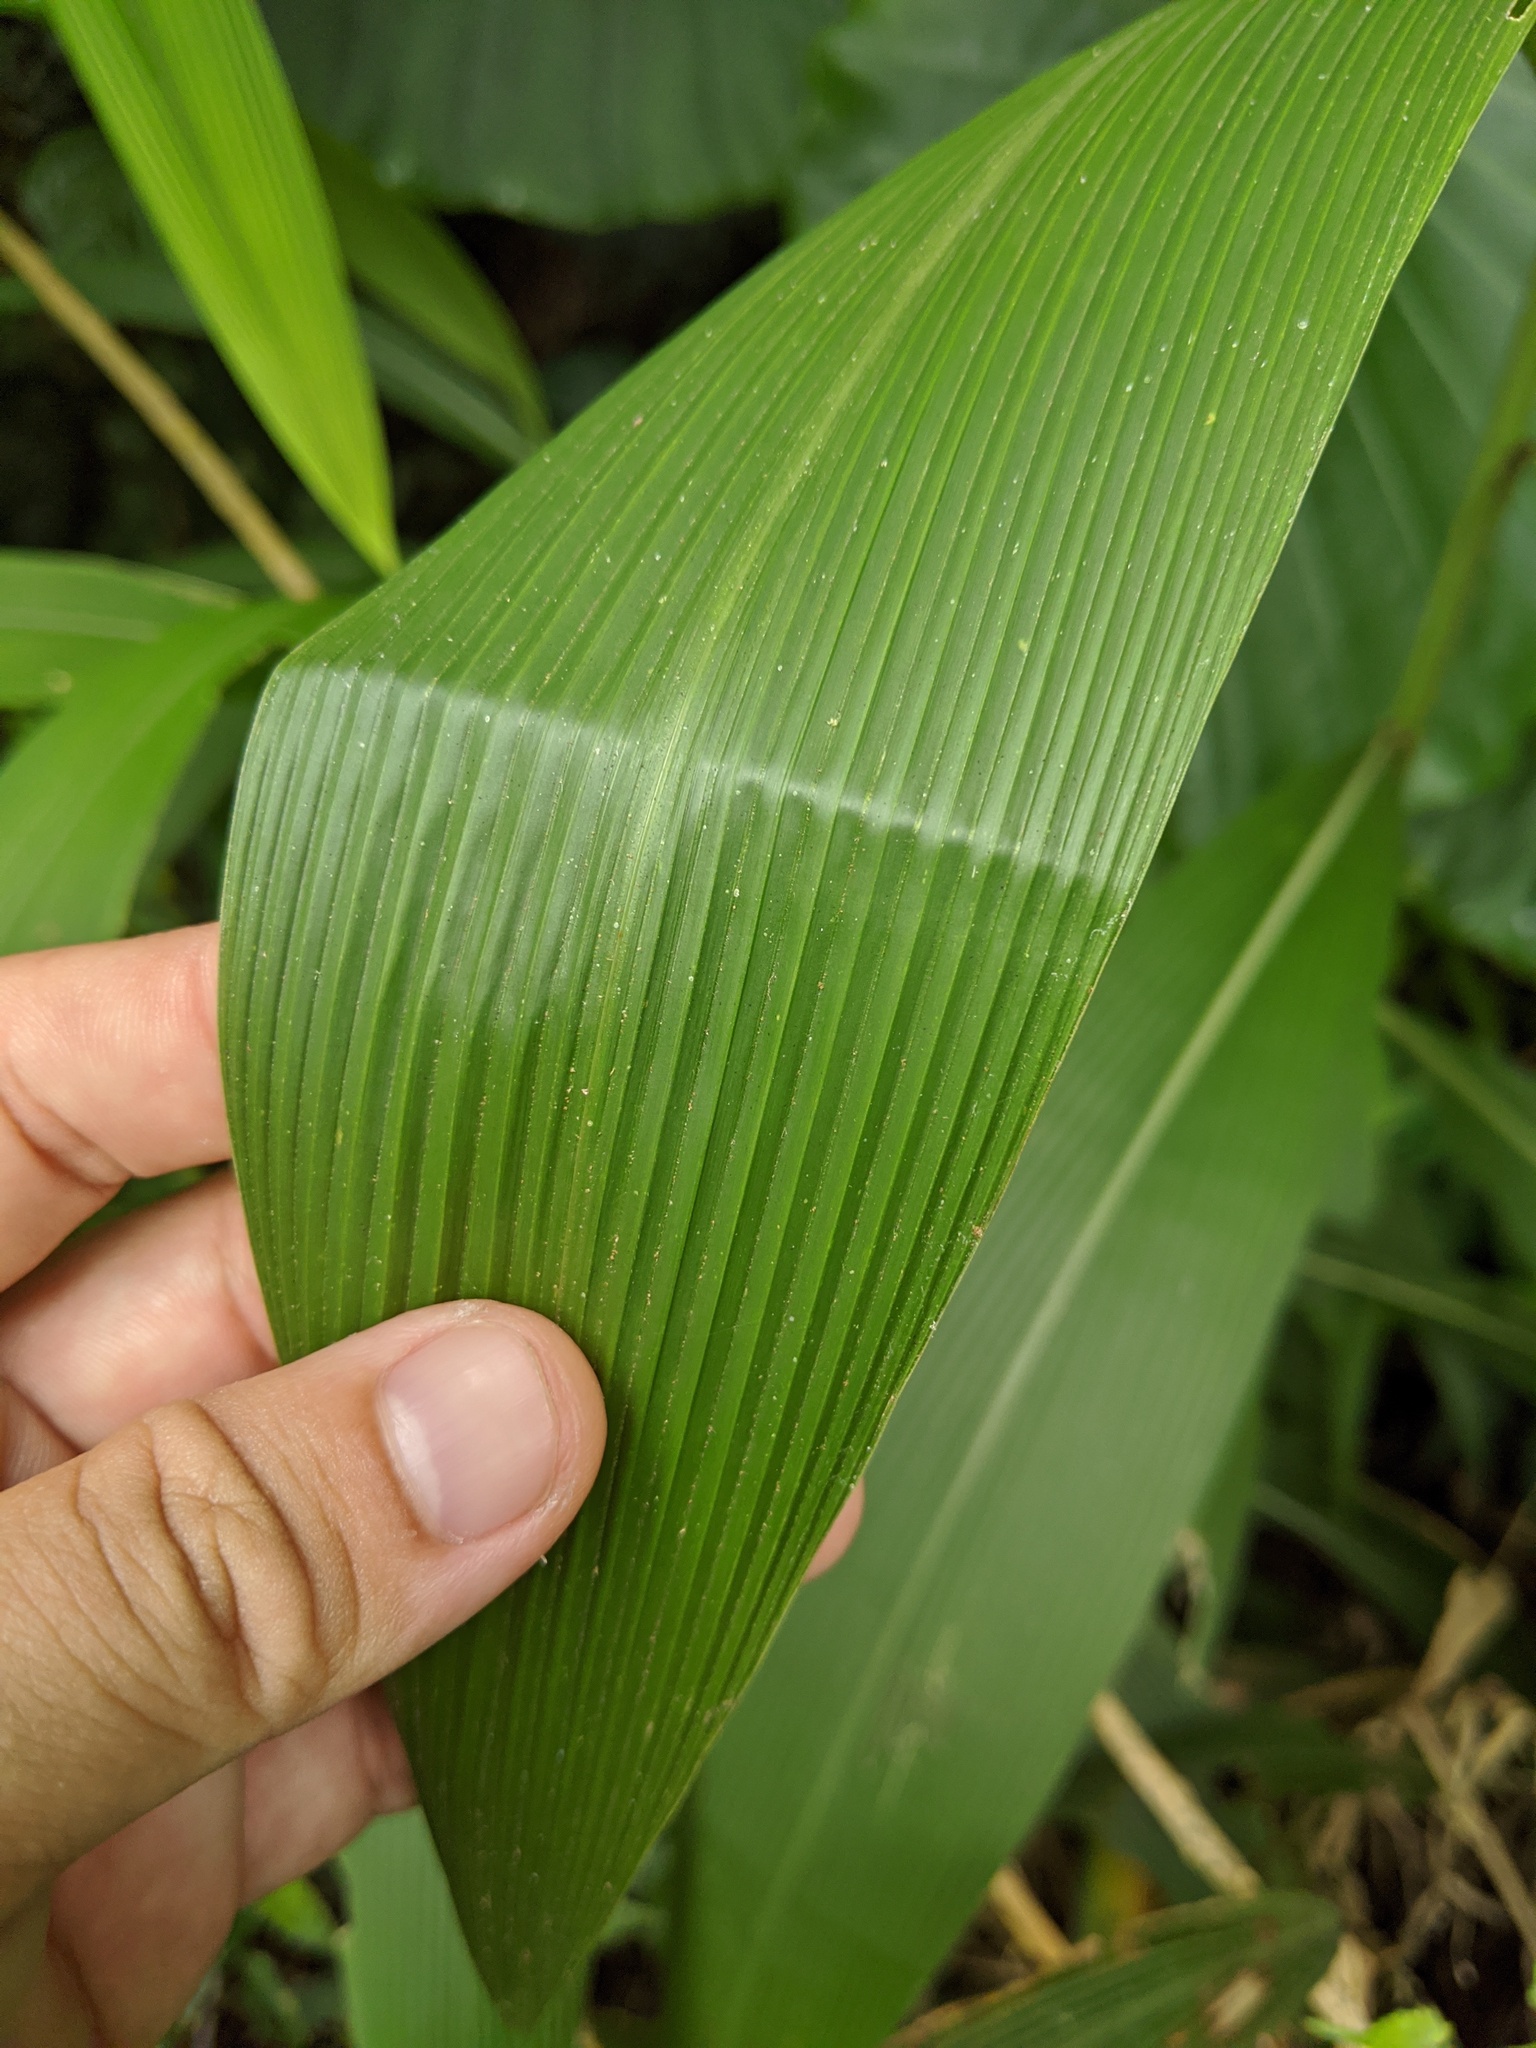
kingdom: Plantae
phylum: Tracheophyta
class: Liliopsida
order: Poales
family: Poaceae
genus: Setaria
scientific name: Setaria palmifolia
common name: Broadleaved bristlegrass
